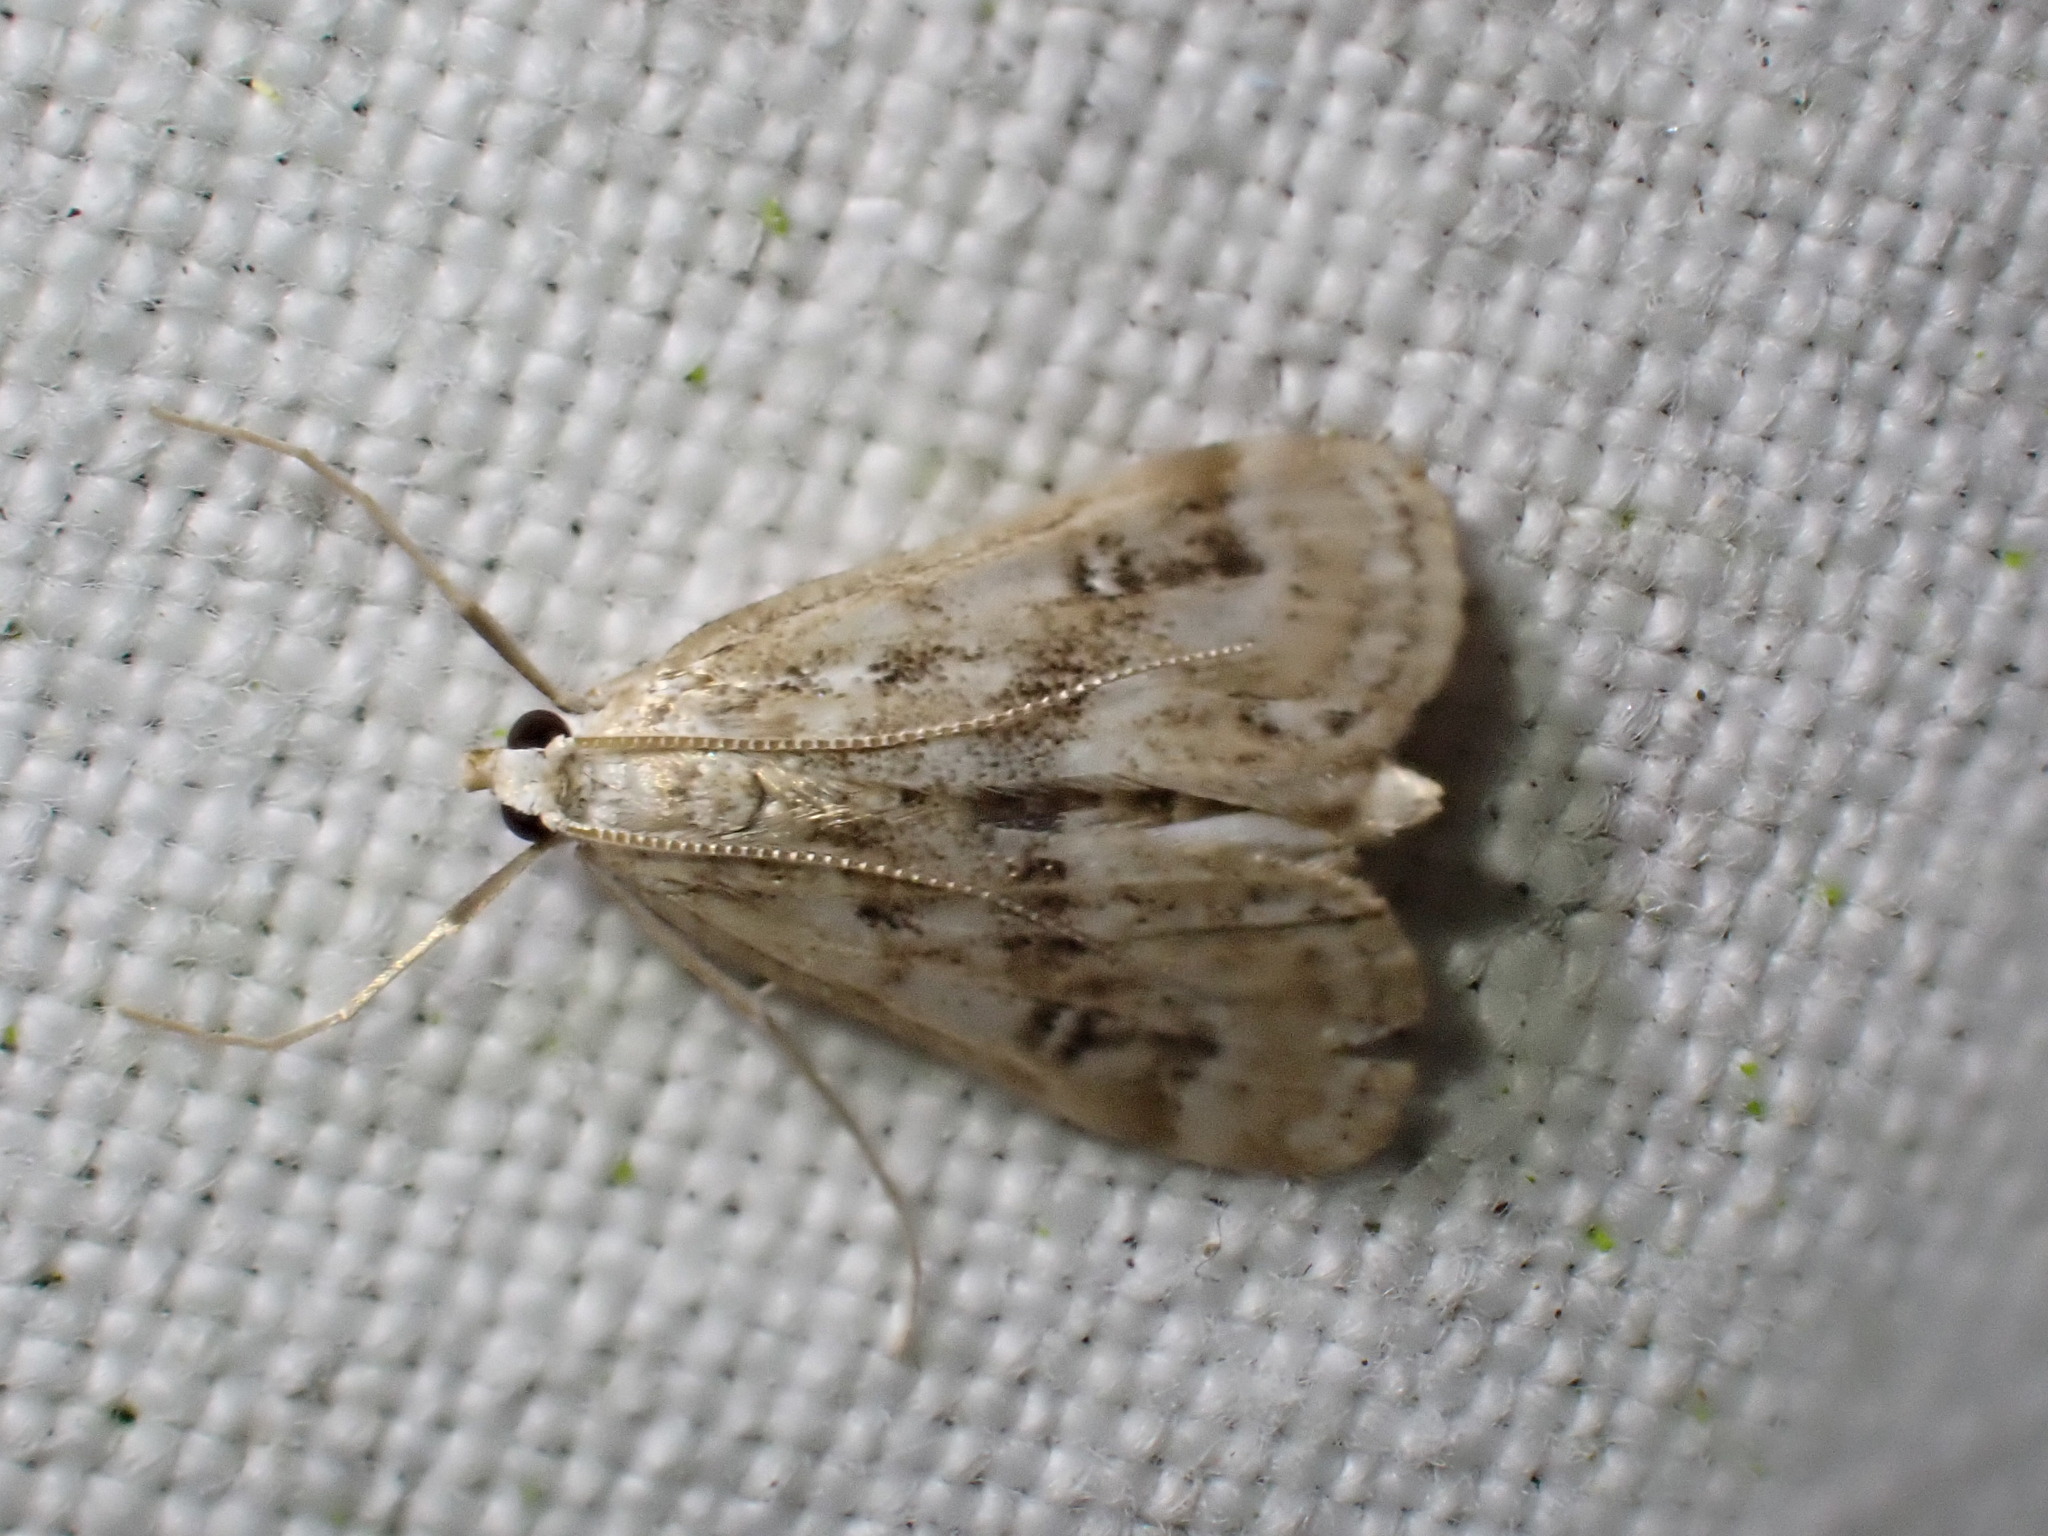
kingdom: Animalia
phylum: Arthropoda
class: Insecta
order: Lepidoptera
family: Crambidae
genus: Parapoynx
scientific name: Parapoynx stratiotata
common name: Ringed china-mark
